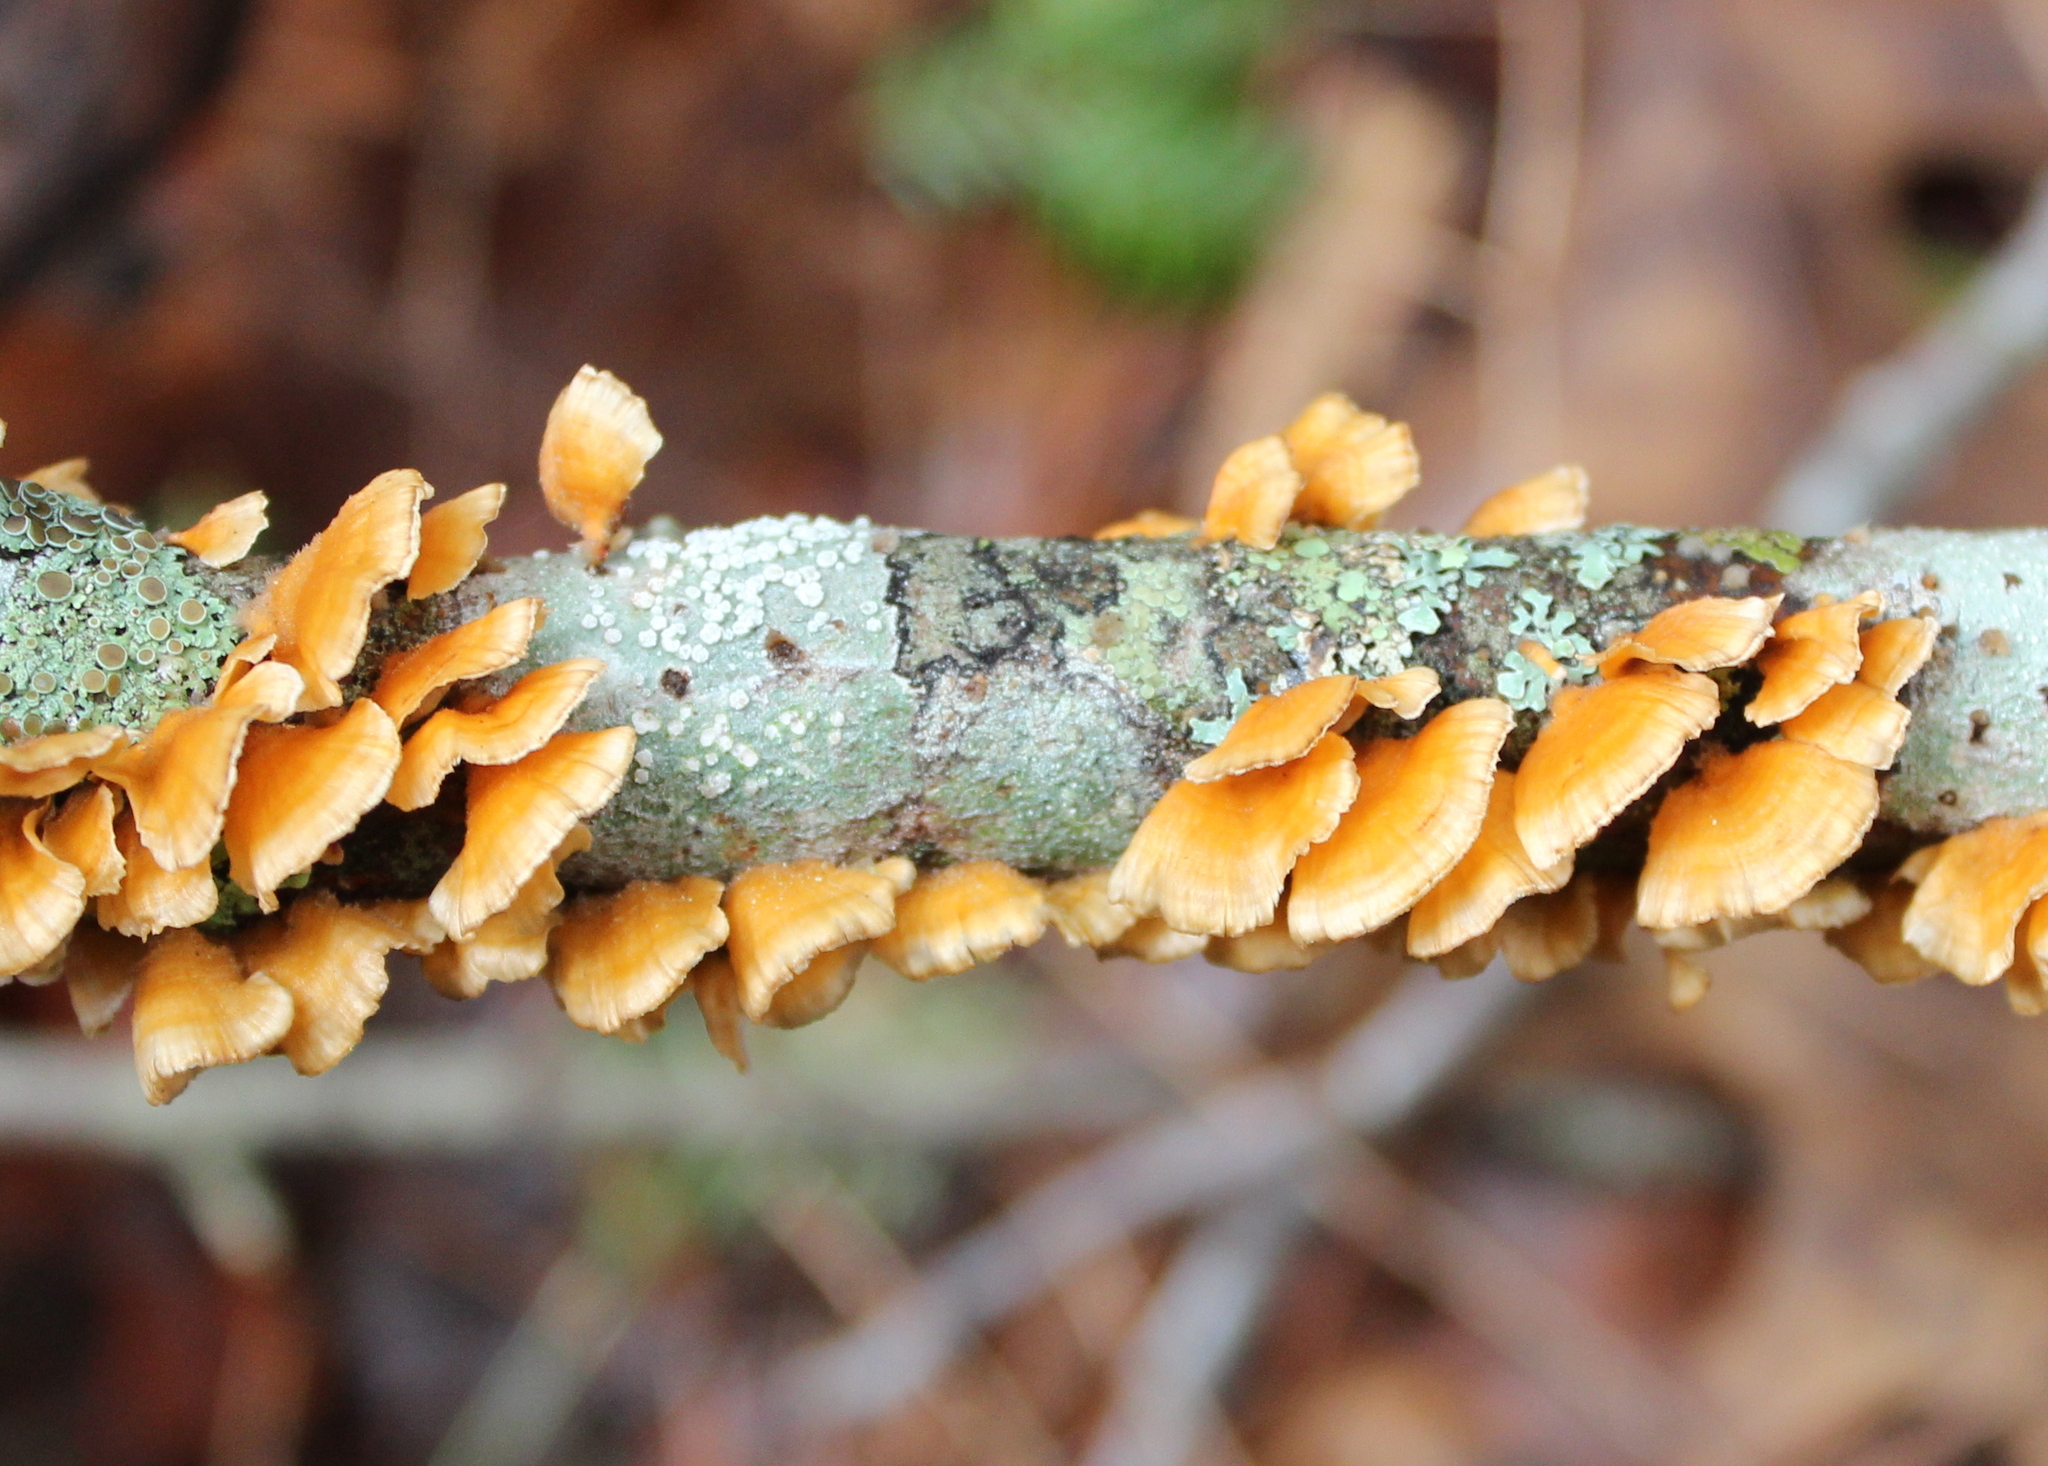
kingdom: Fungi
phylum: Basidiomycota
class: Agaricomycetes
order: Russulales
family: Stereaceae
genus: Stereum
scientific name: Stereum complicatum
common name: Crowded parchment
